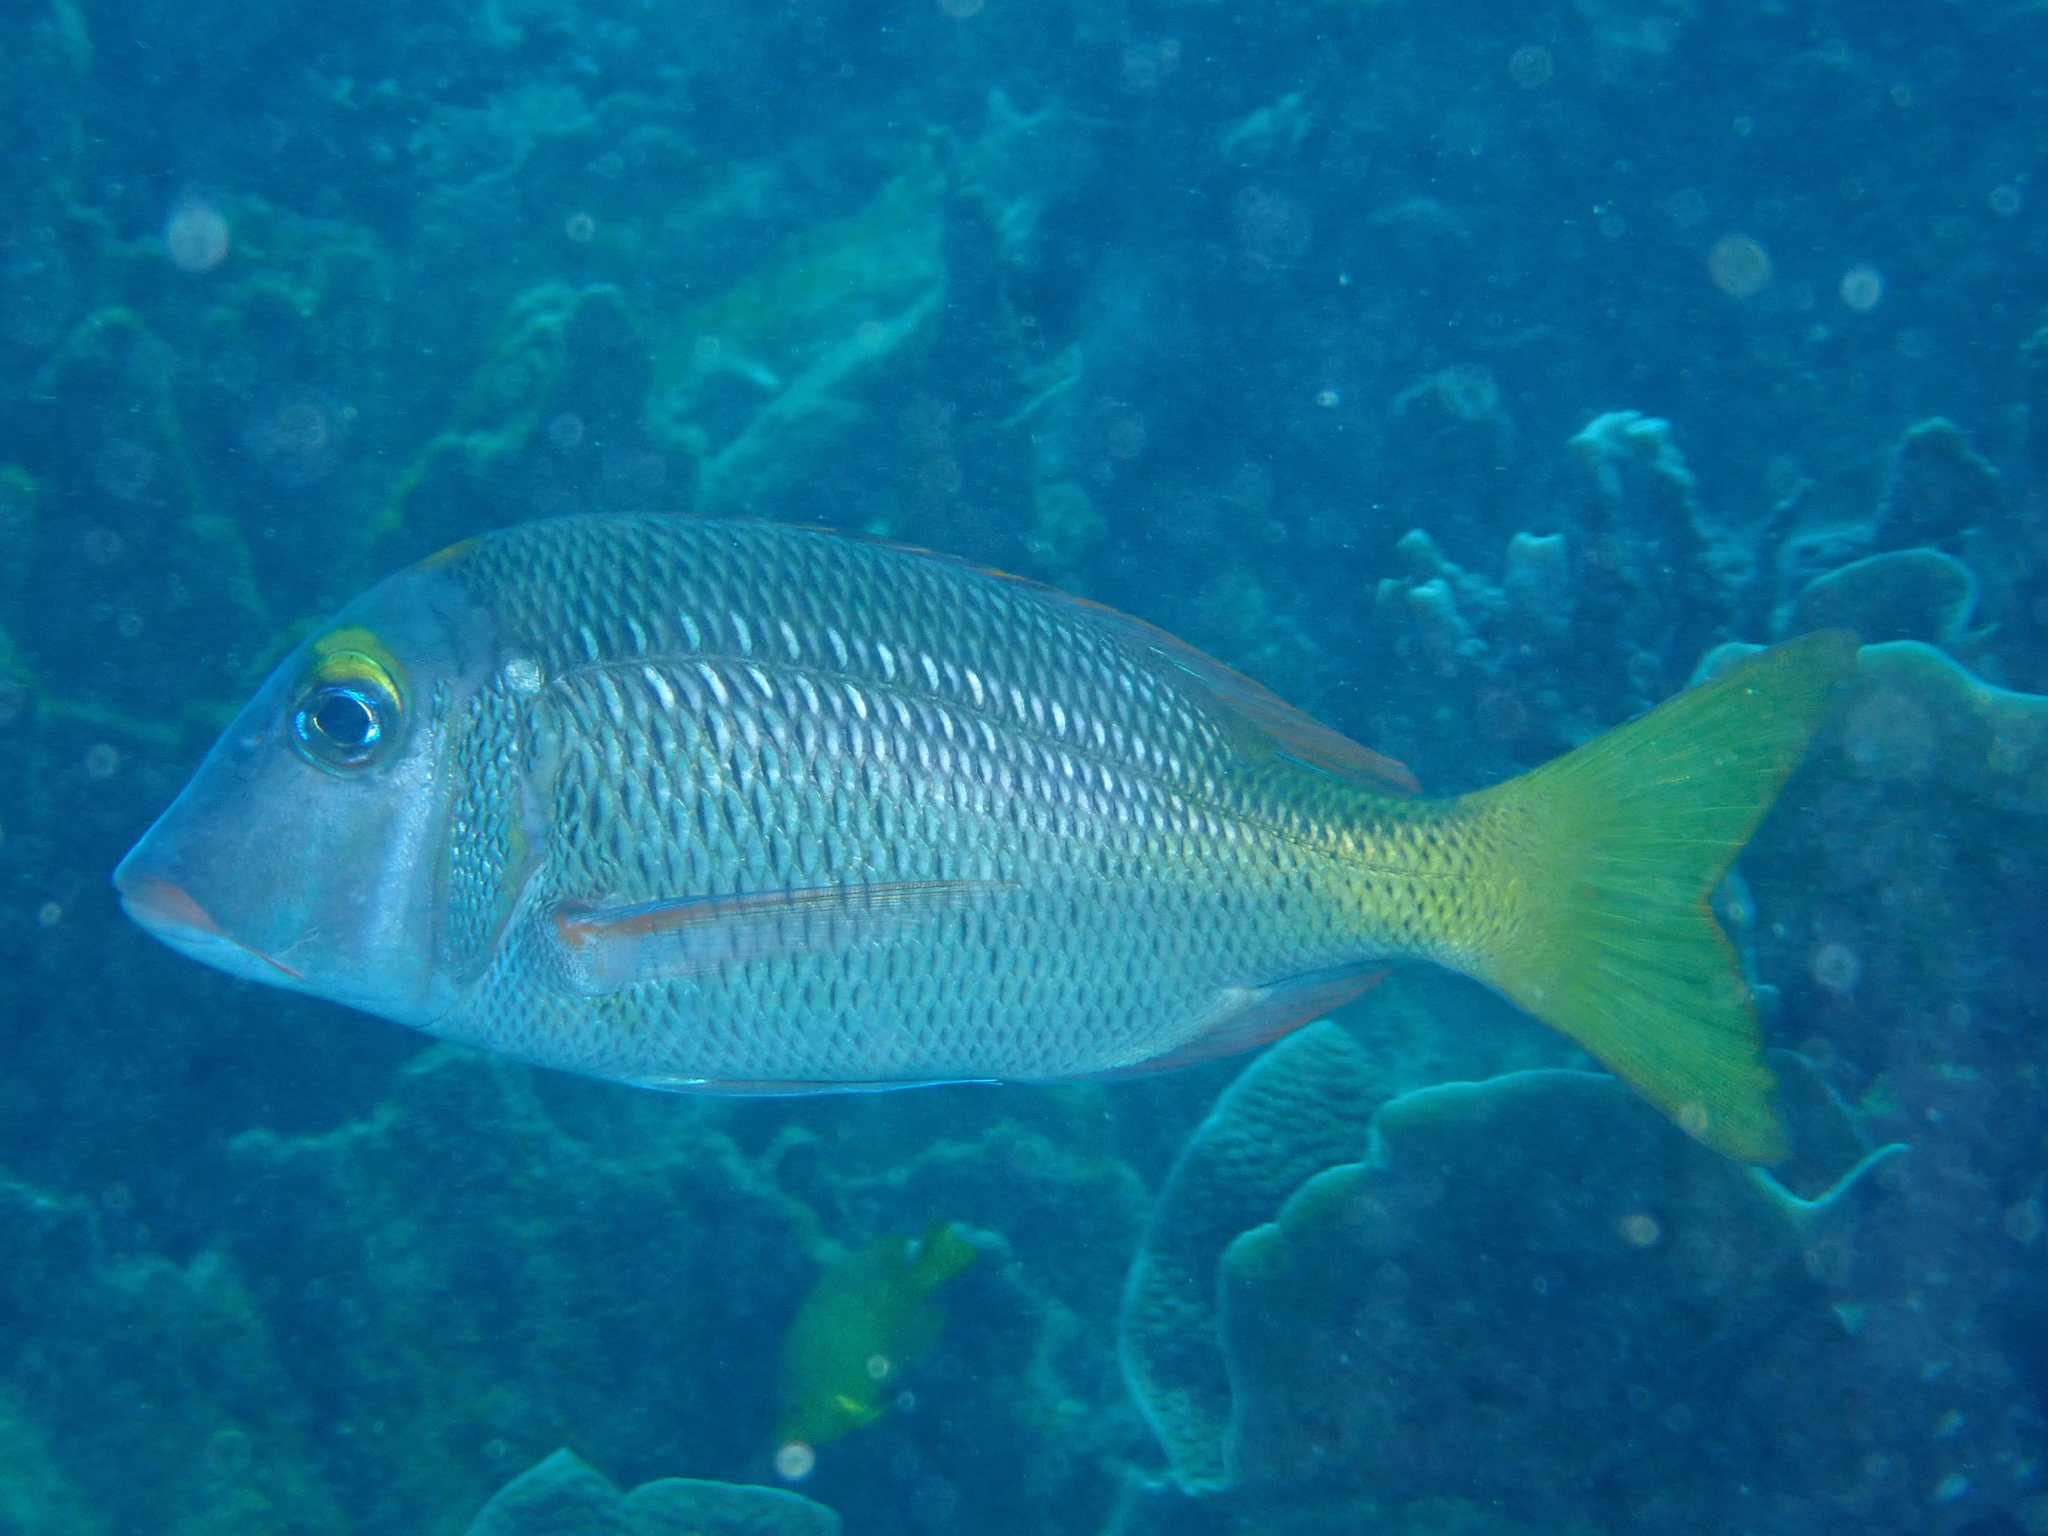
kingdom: Animalia
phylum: Chordata
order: Perciformes
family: Lethrinidae
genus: Lethrinus
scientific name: Lethrinus atkinsoni
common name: Pacific yellowtail emperor
